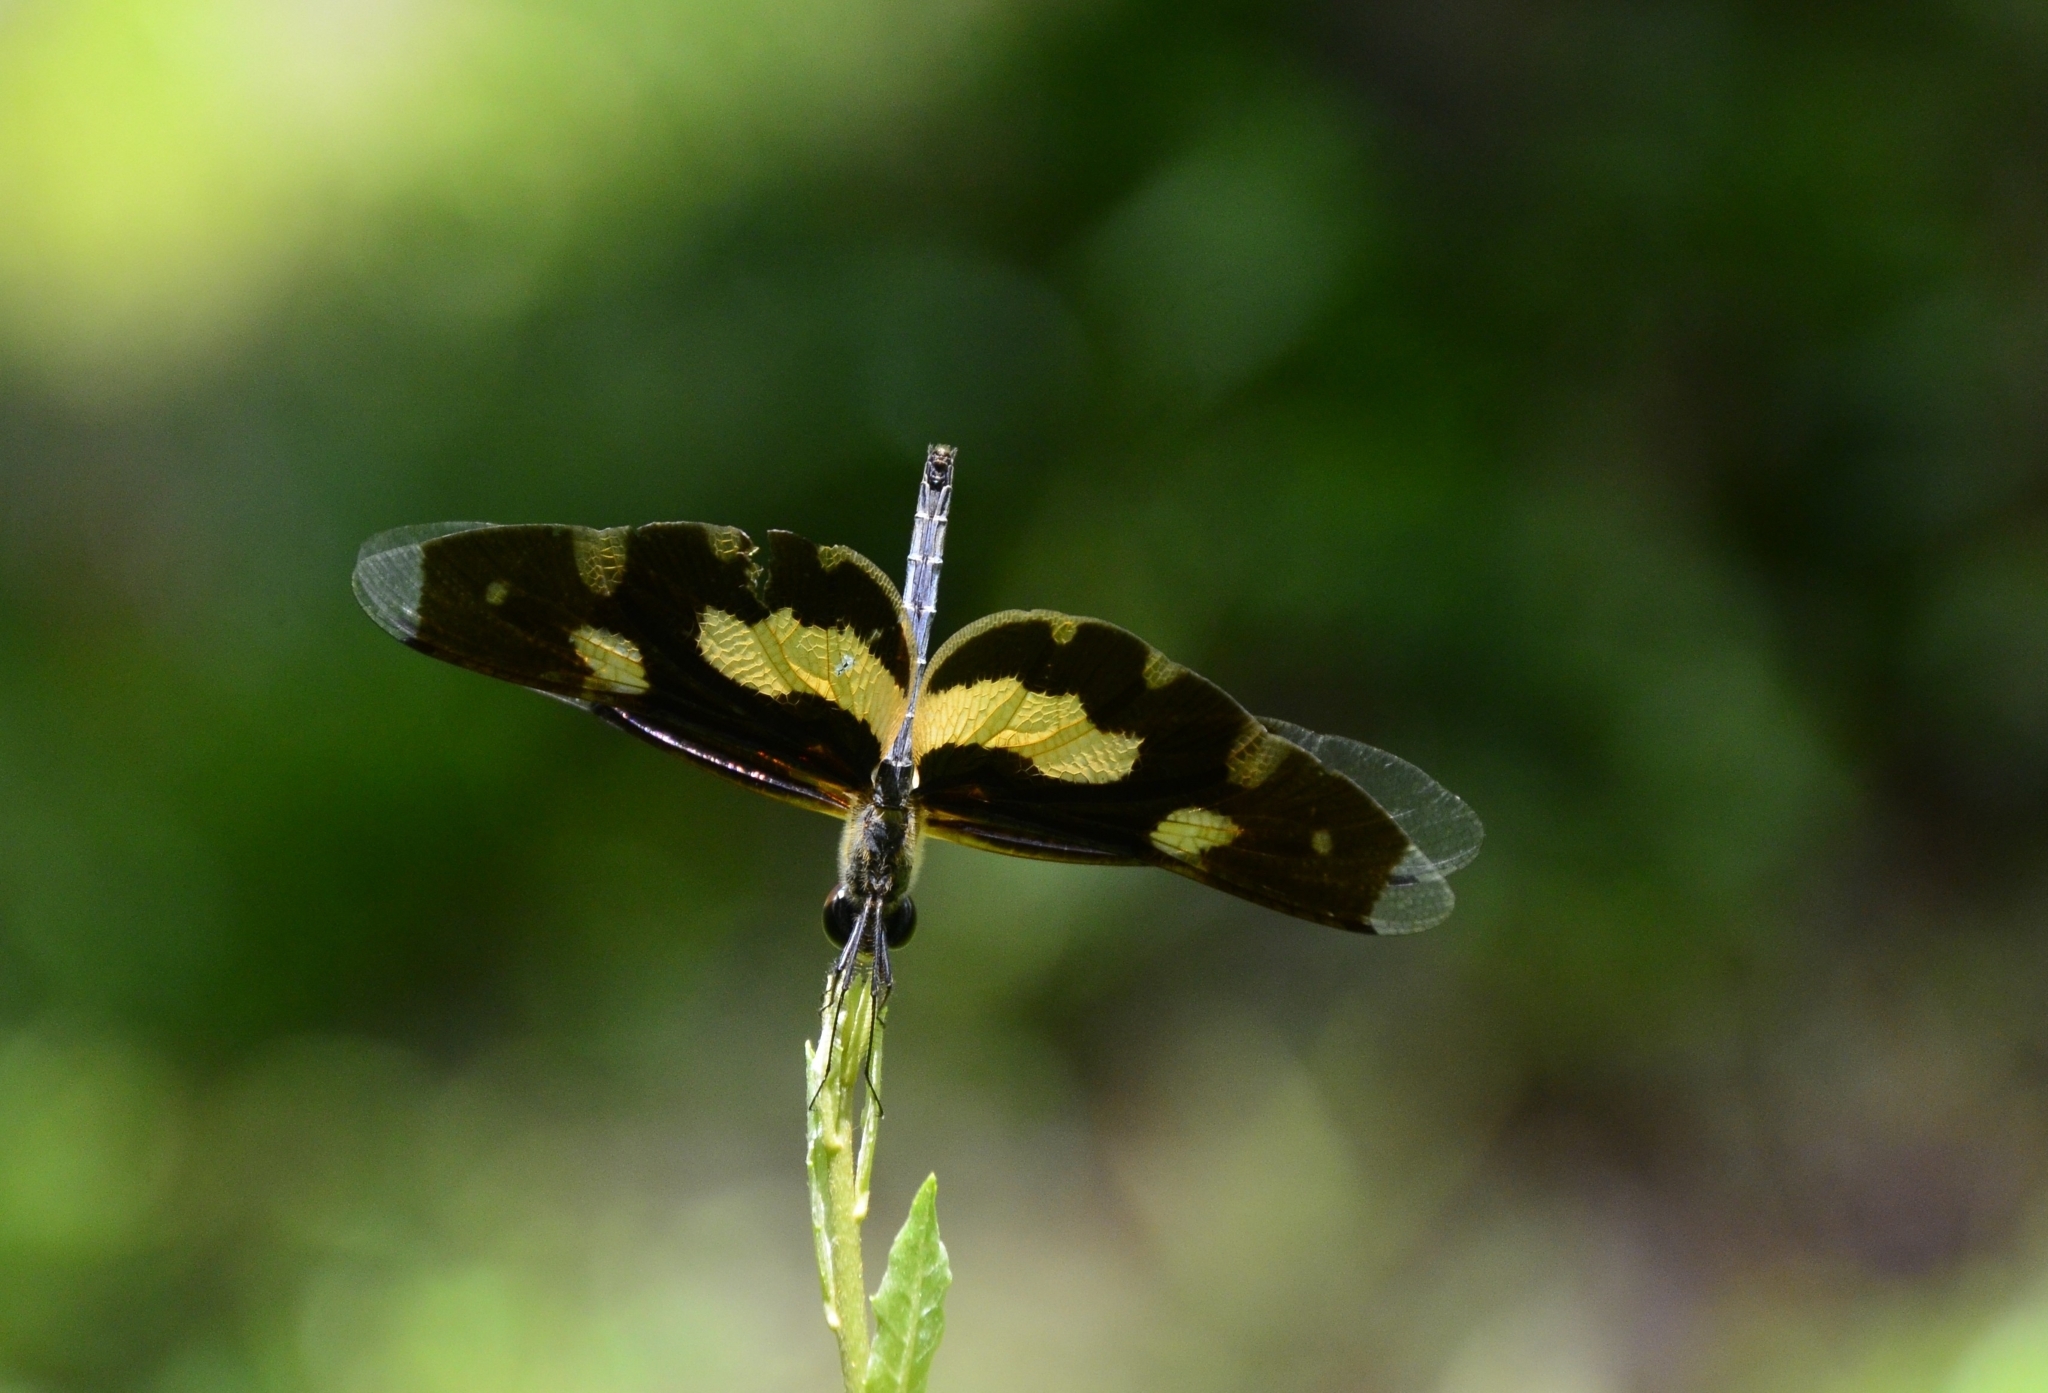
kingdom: Animalia
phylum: Arthropoda
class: Insecta
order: Odonata
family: Libellulidae
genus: Rhyothemis
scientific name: Rhyothemis variegata
